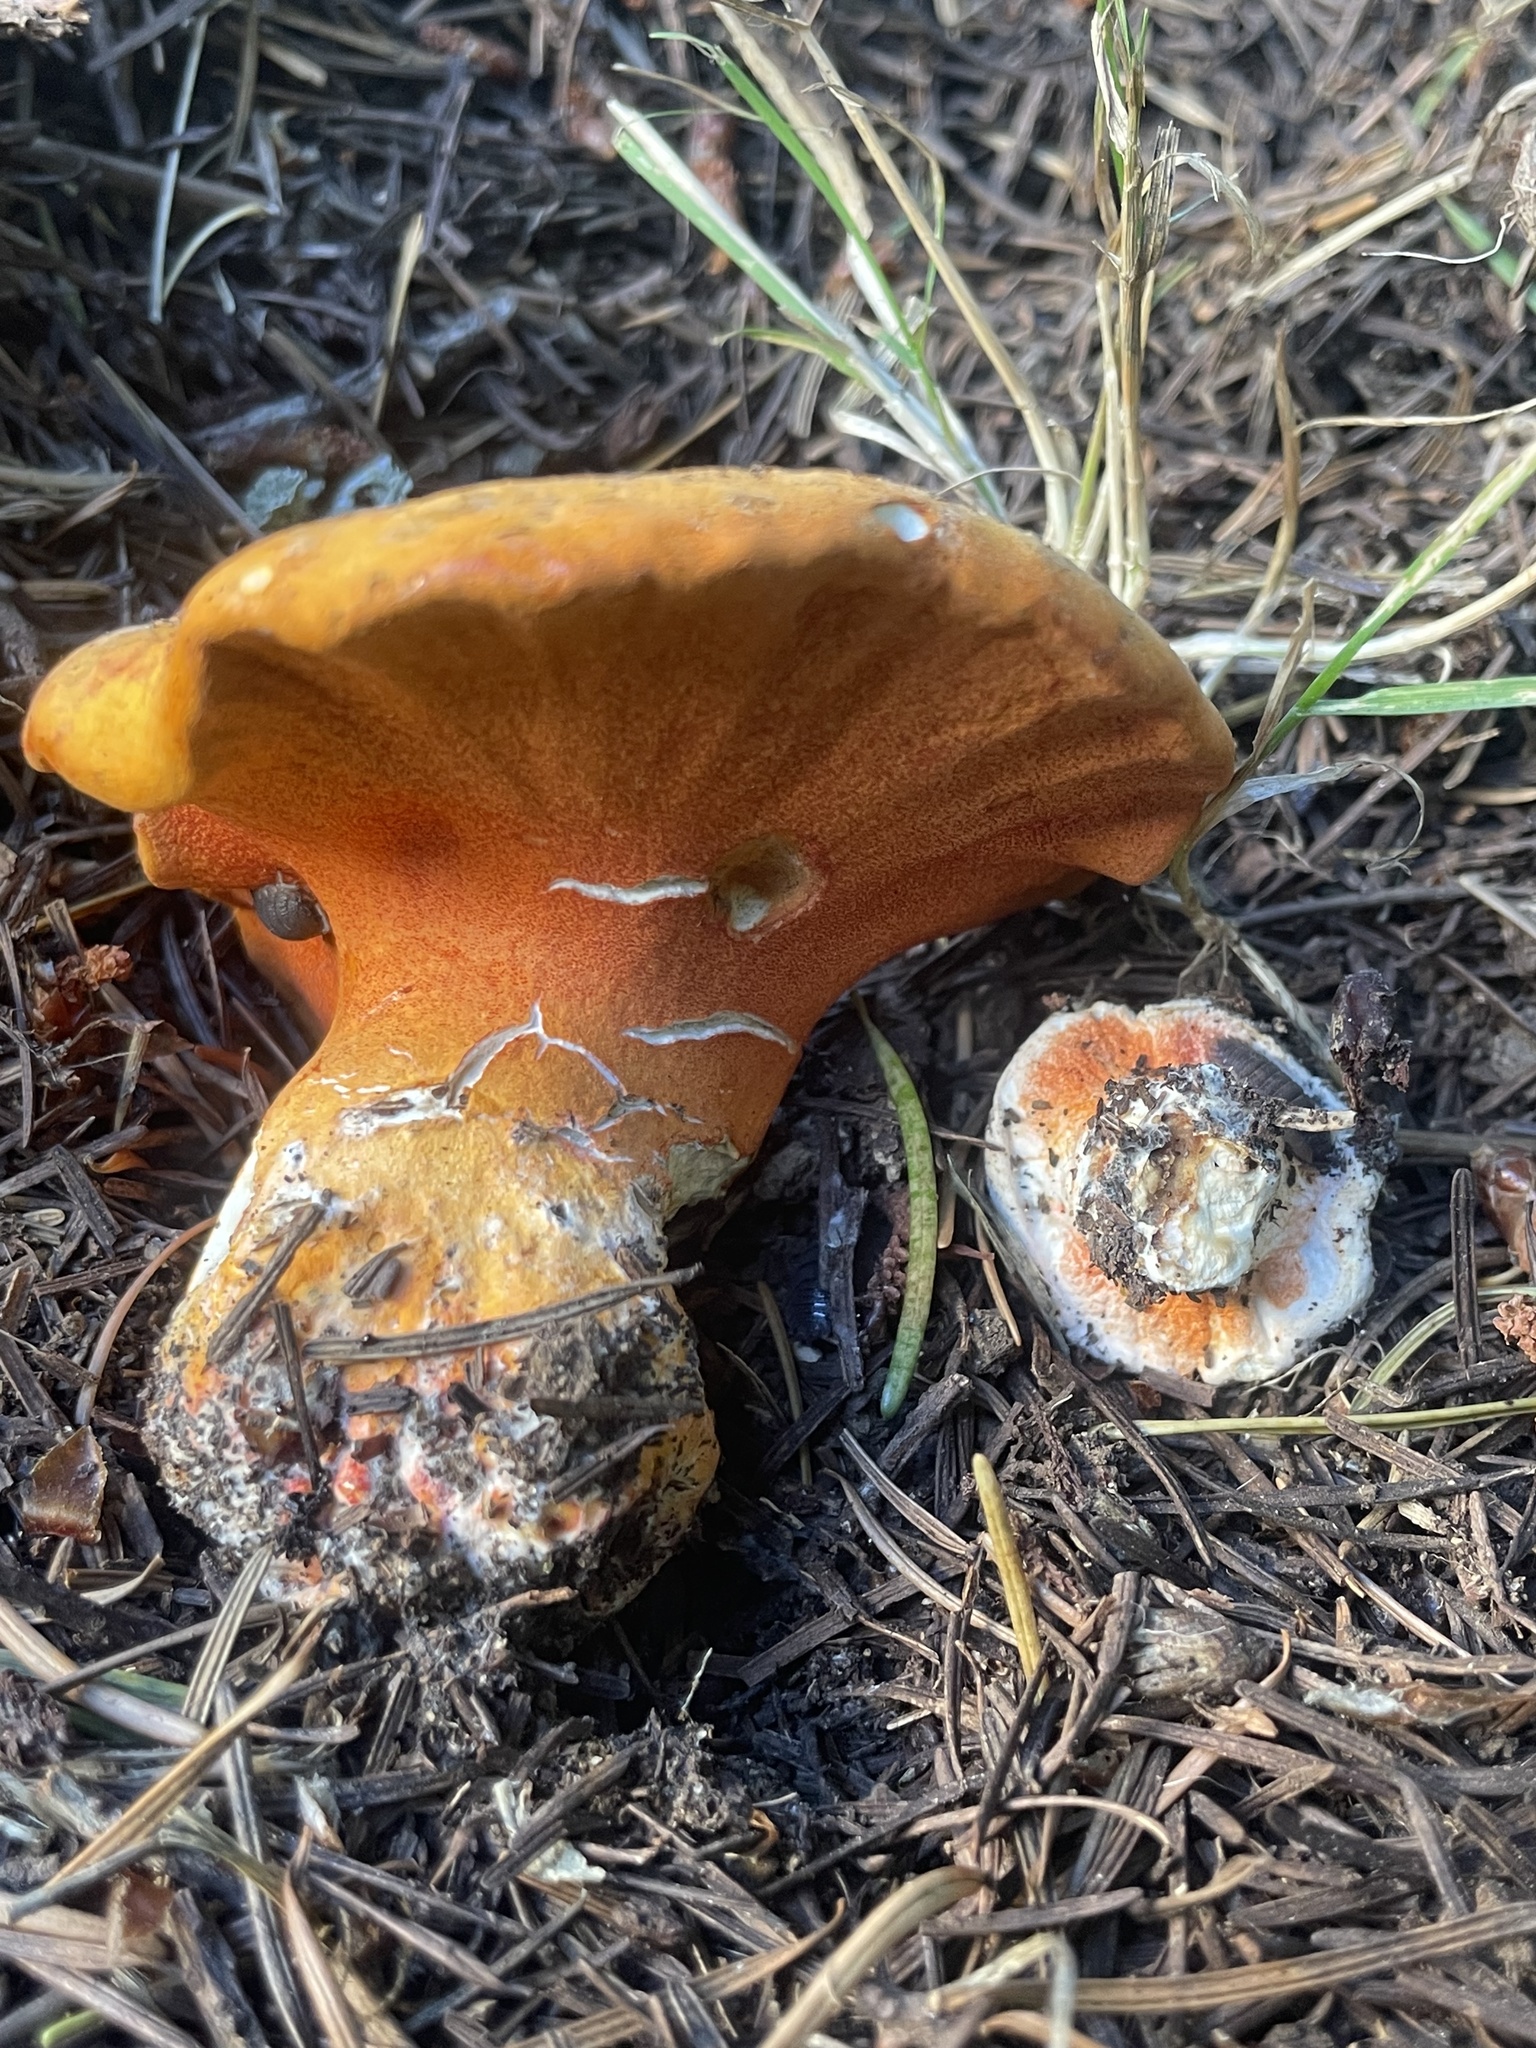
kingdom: Fungi
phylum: Ascomycota
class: Sordariomycetes
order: Hypocreales
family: Hypocreaceae
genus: Hypomyces
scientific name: Hypomyces lactifluorum
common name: Lobster mushroom
